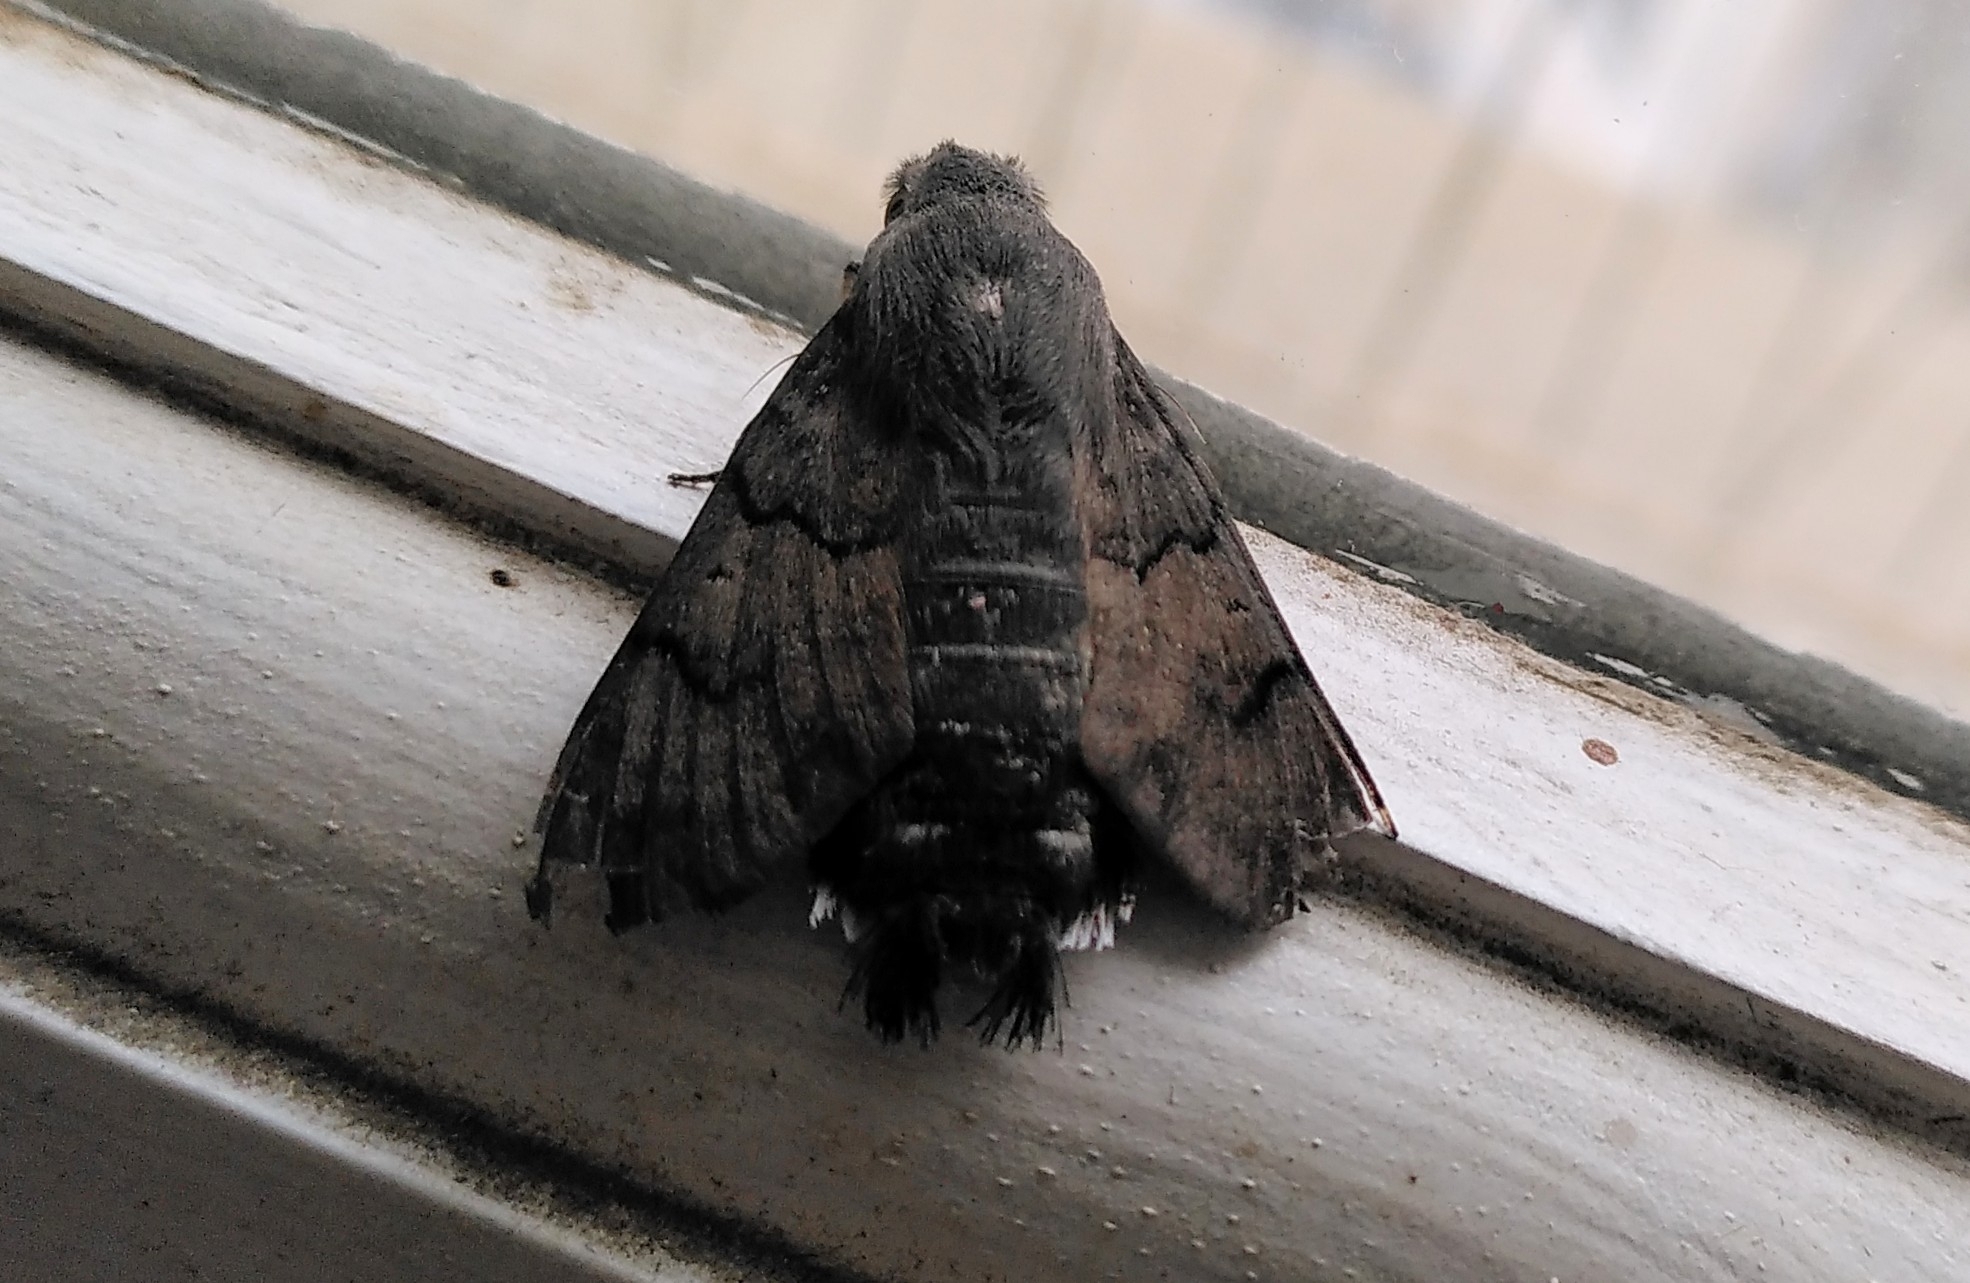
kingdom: Animalia
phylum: Arthropoda
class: Insecta
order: Lepidoptera
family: Sphingidae
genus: Macroglossum
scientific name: Macroglossum stellatarum
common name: Humming-bird hawk-moth
